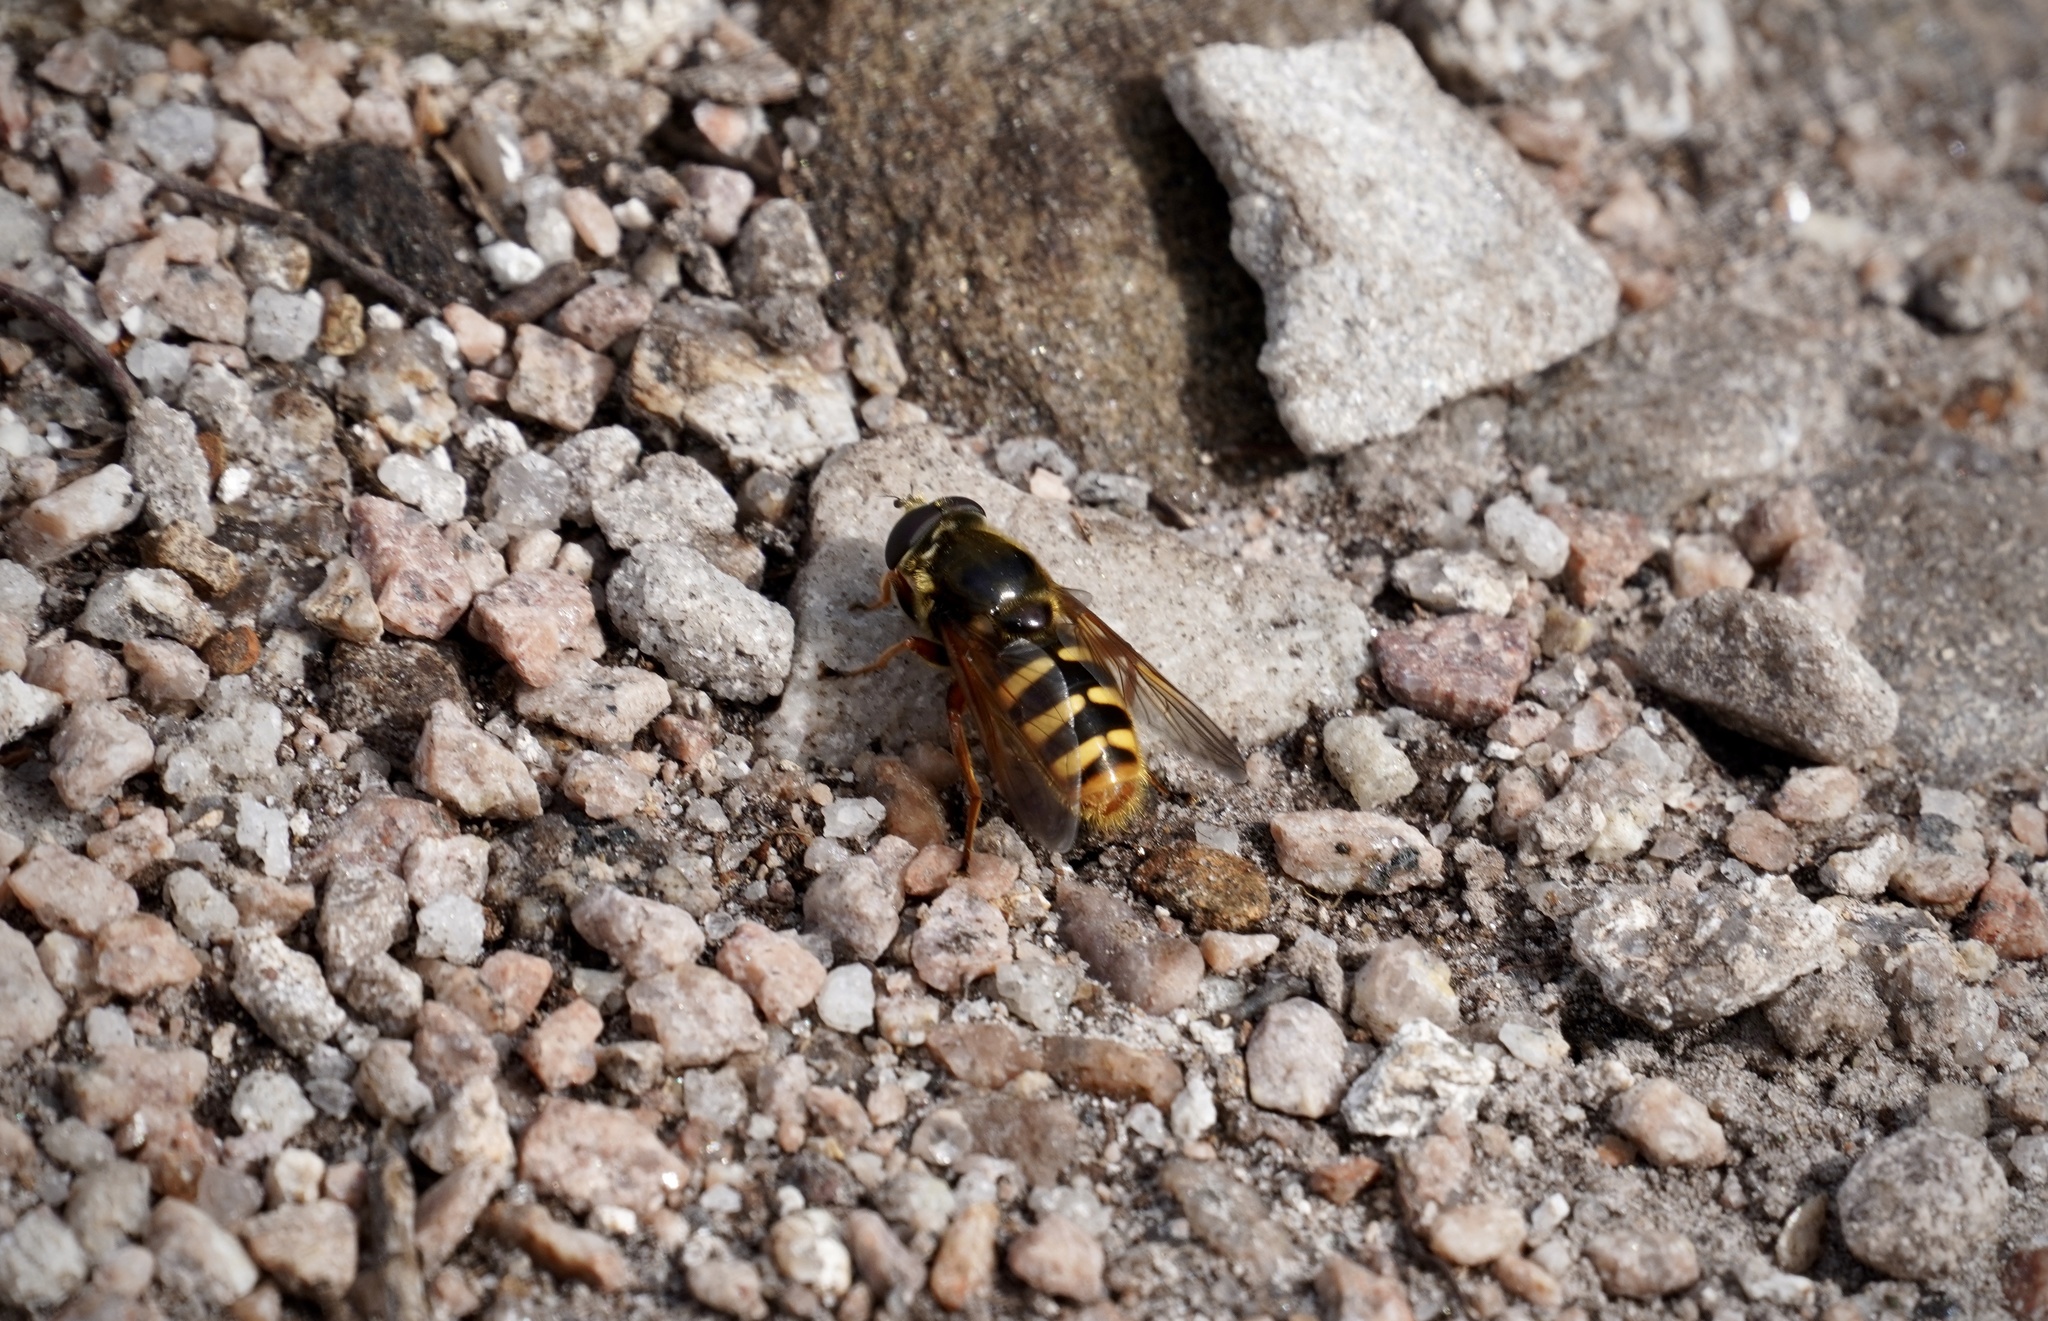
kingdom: Animalia
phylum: Arthropoda
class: Insecta
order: Diptera
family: Syrphidae
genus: Sericomyia
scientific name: Sericomyia silentis
